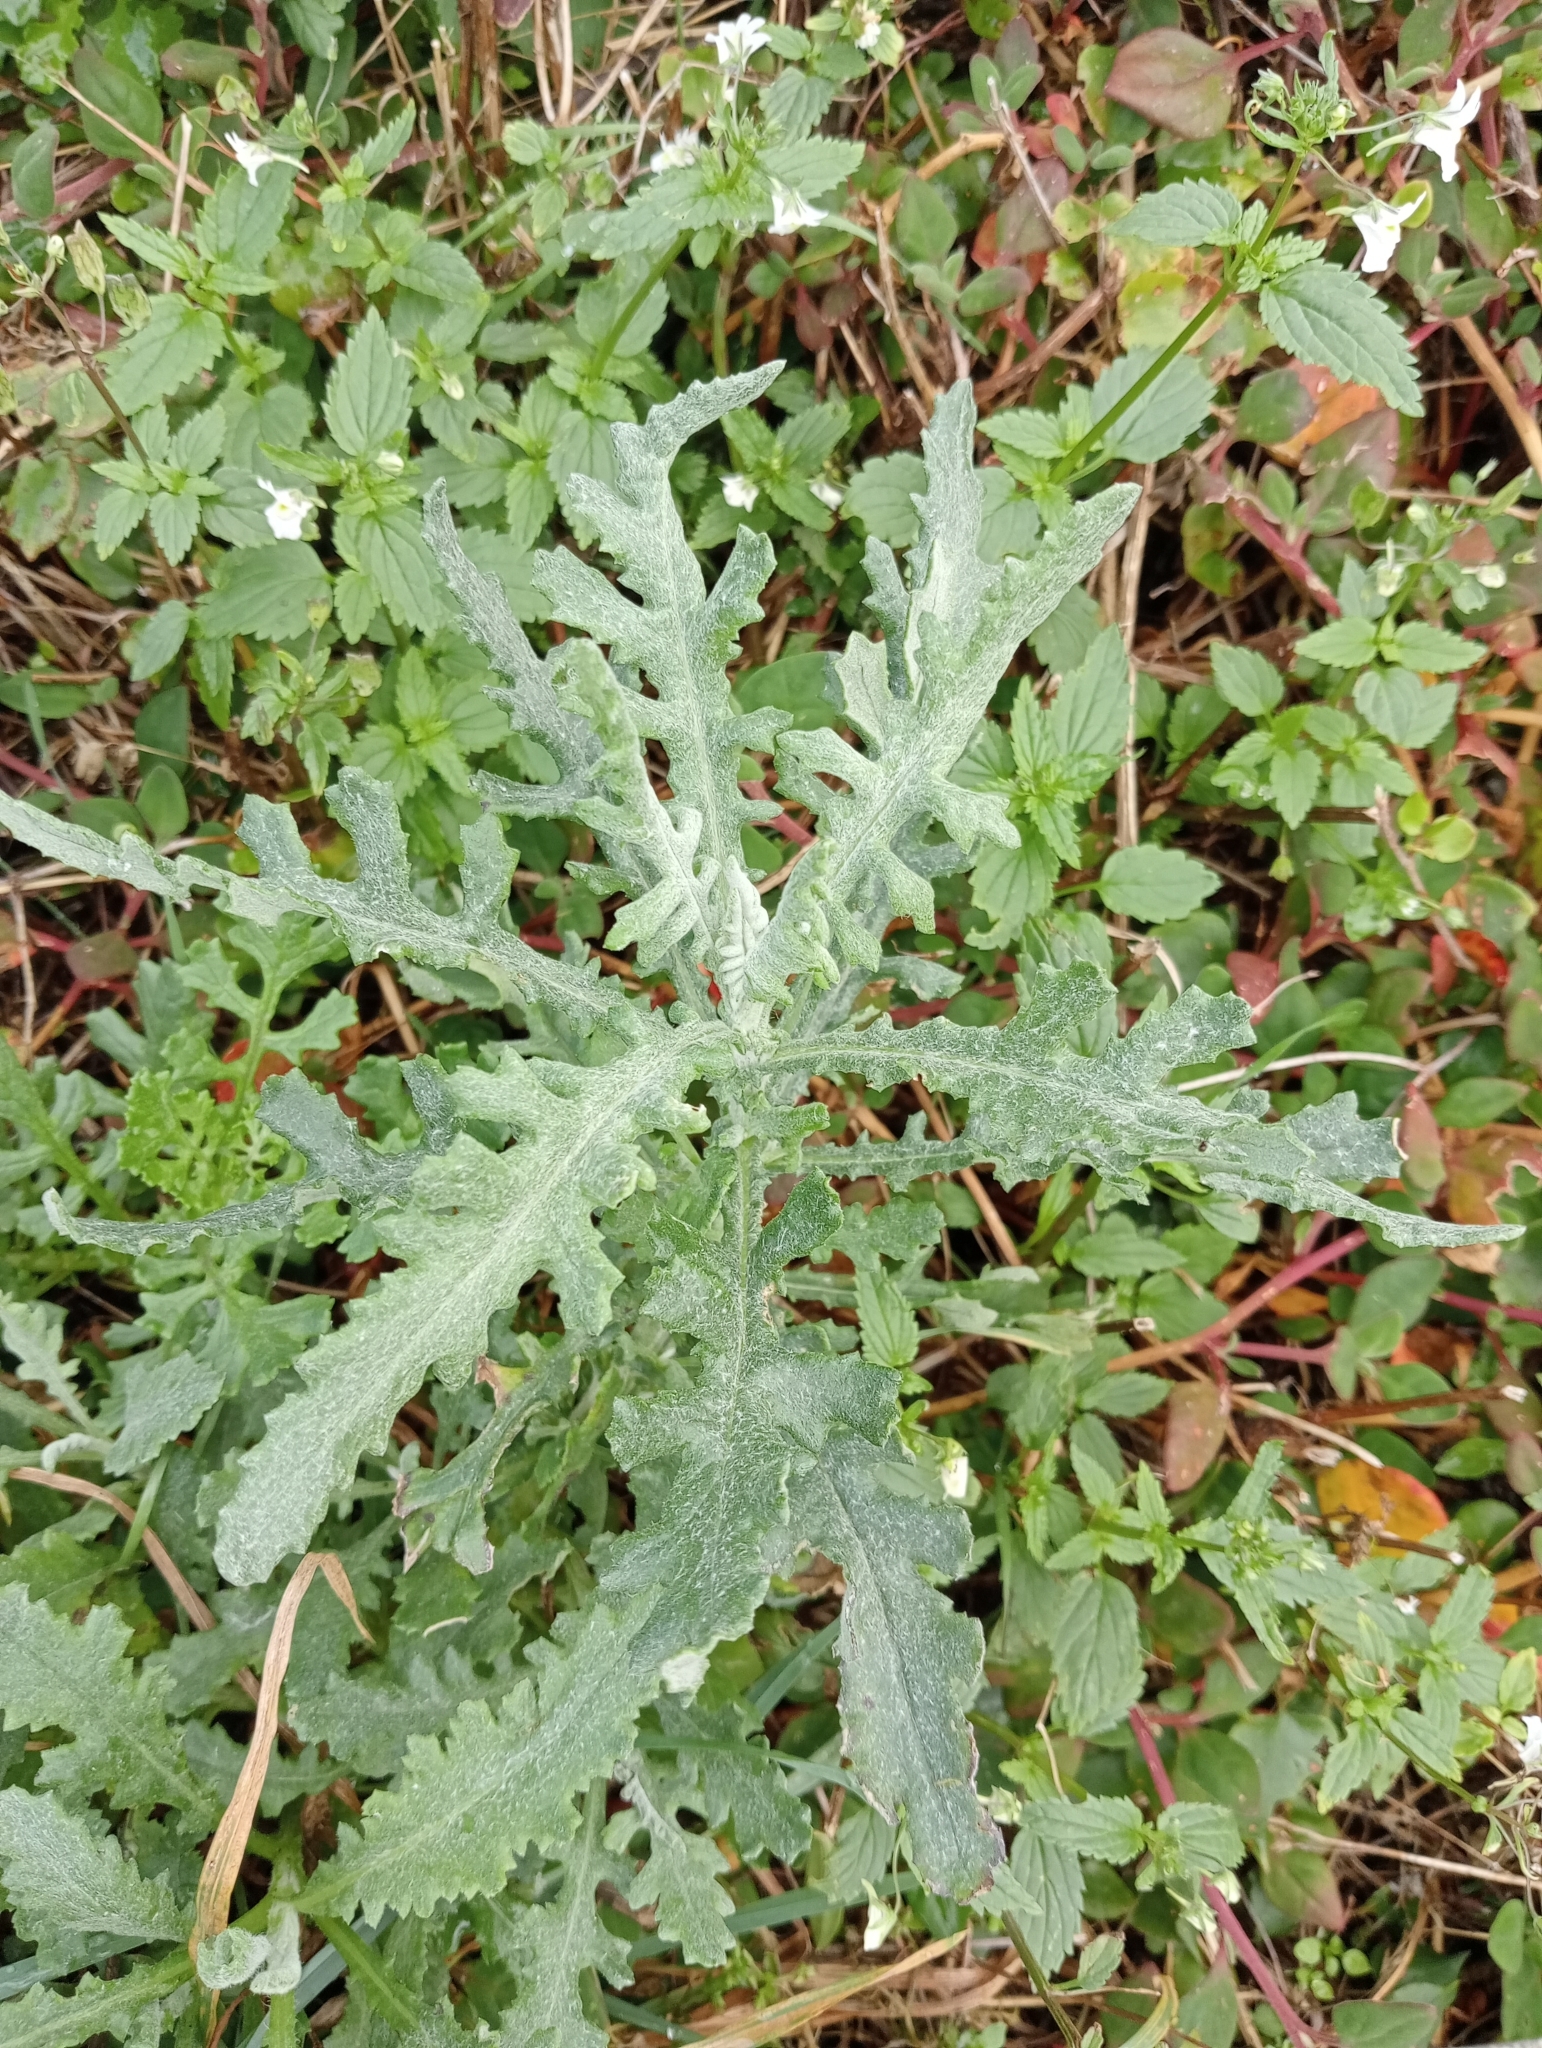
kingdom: Plantae
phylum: Tracheophyta
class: Magnoliopsida
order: Asterales
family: Asteraceae
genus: Senecio
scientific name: Senecio glomeratus
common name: Cutleaf burnweed
